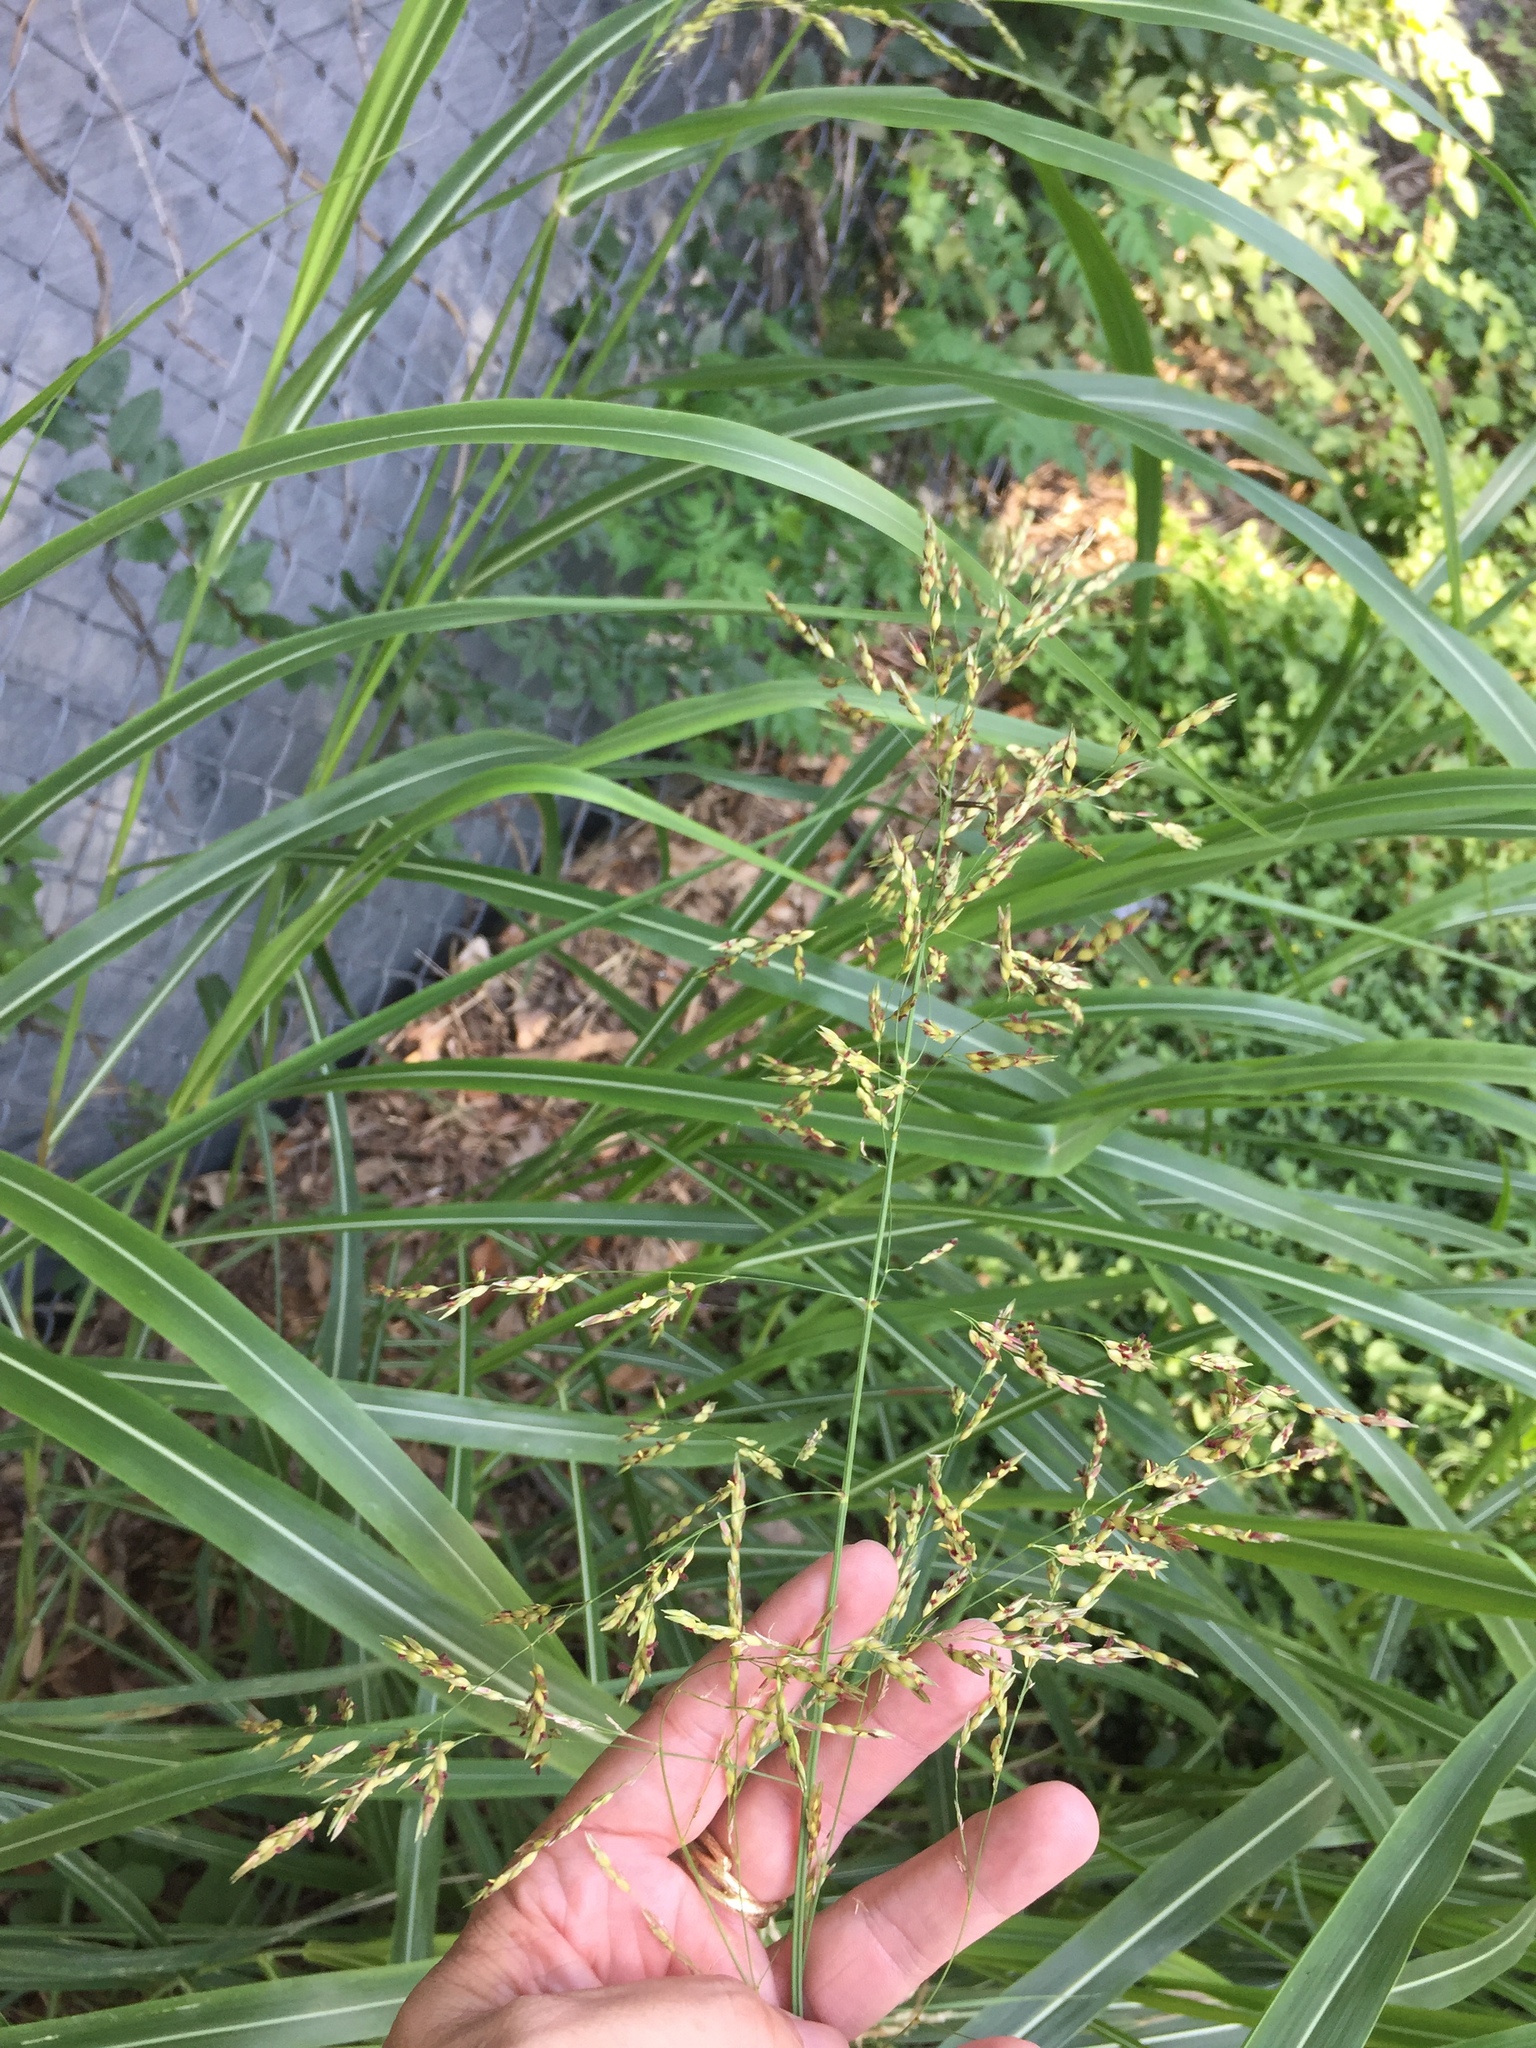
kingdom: Plantae
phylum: Tracheophyta
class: Liliopsida
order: Poales
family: Poaceae
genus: Sorghum
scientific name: Sorghum halepense
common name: Johnson-grass
